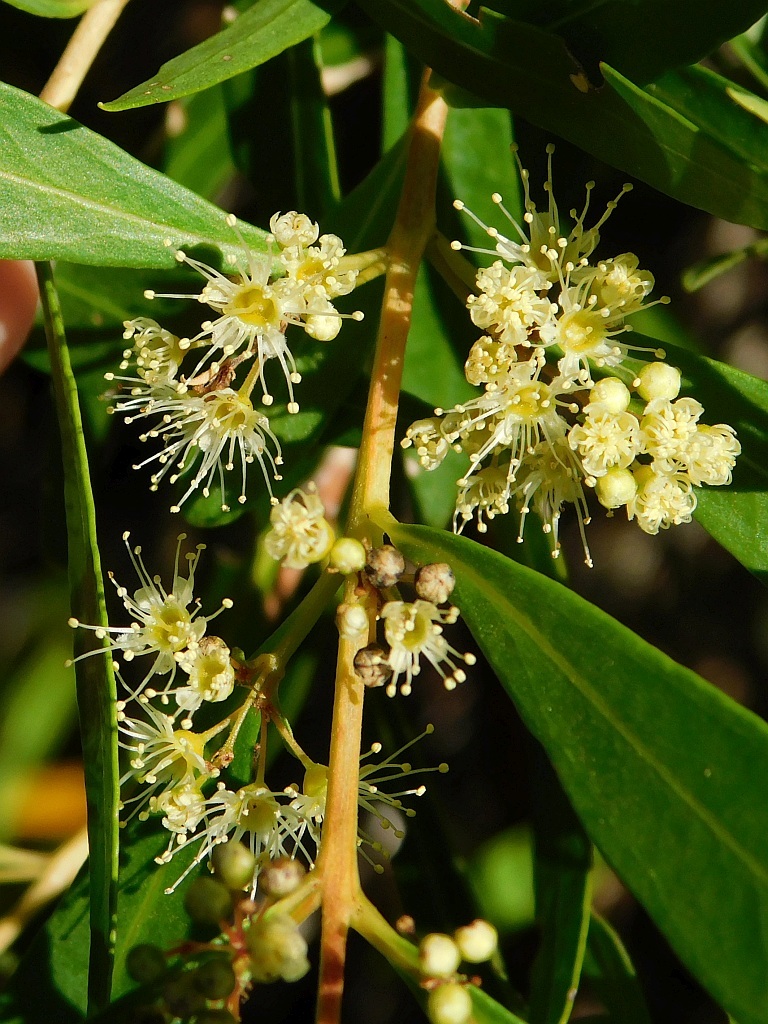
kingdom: Plantae
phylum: Tracheophyta
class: Magnoliopsida
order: Myrtales
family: Myrtaceae
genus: Callistemon
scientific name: Callistemon lanceolatus
